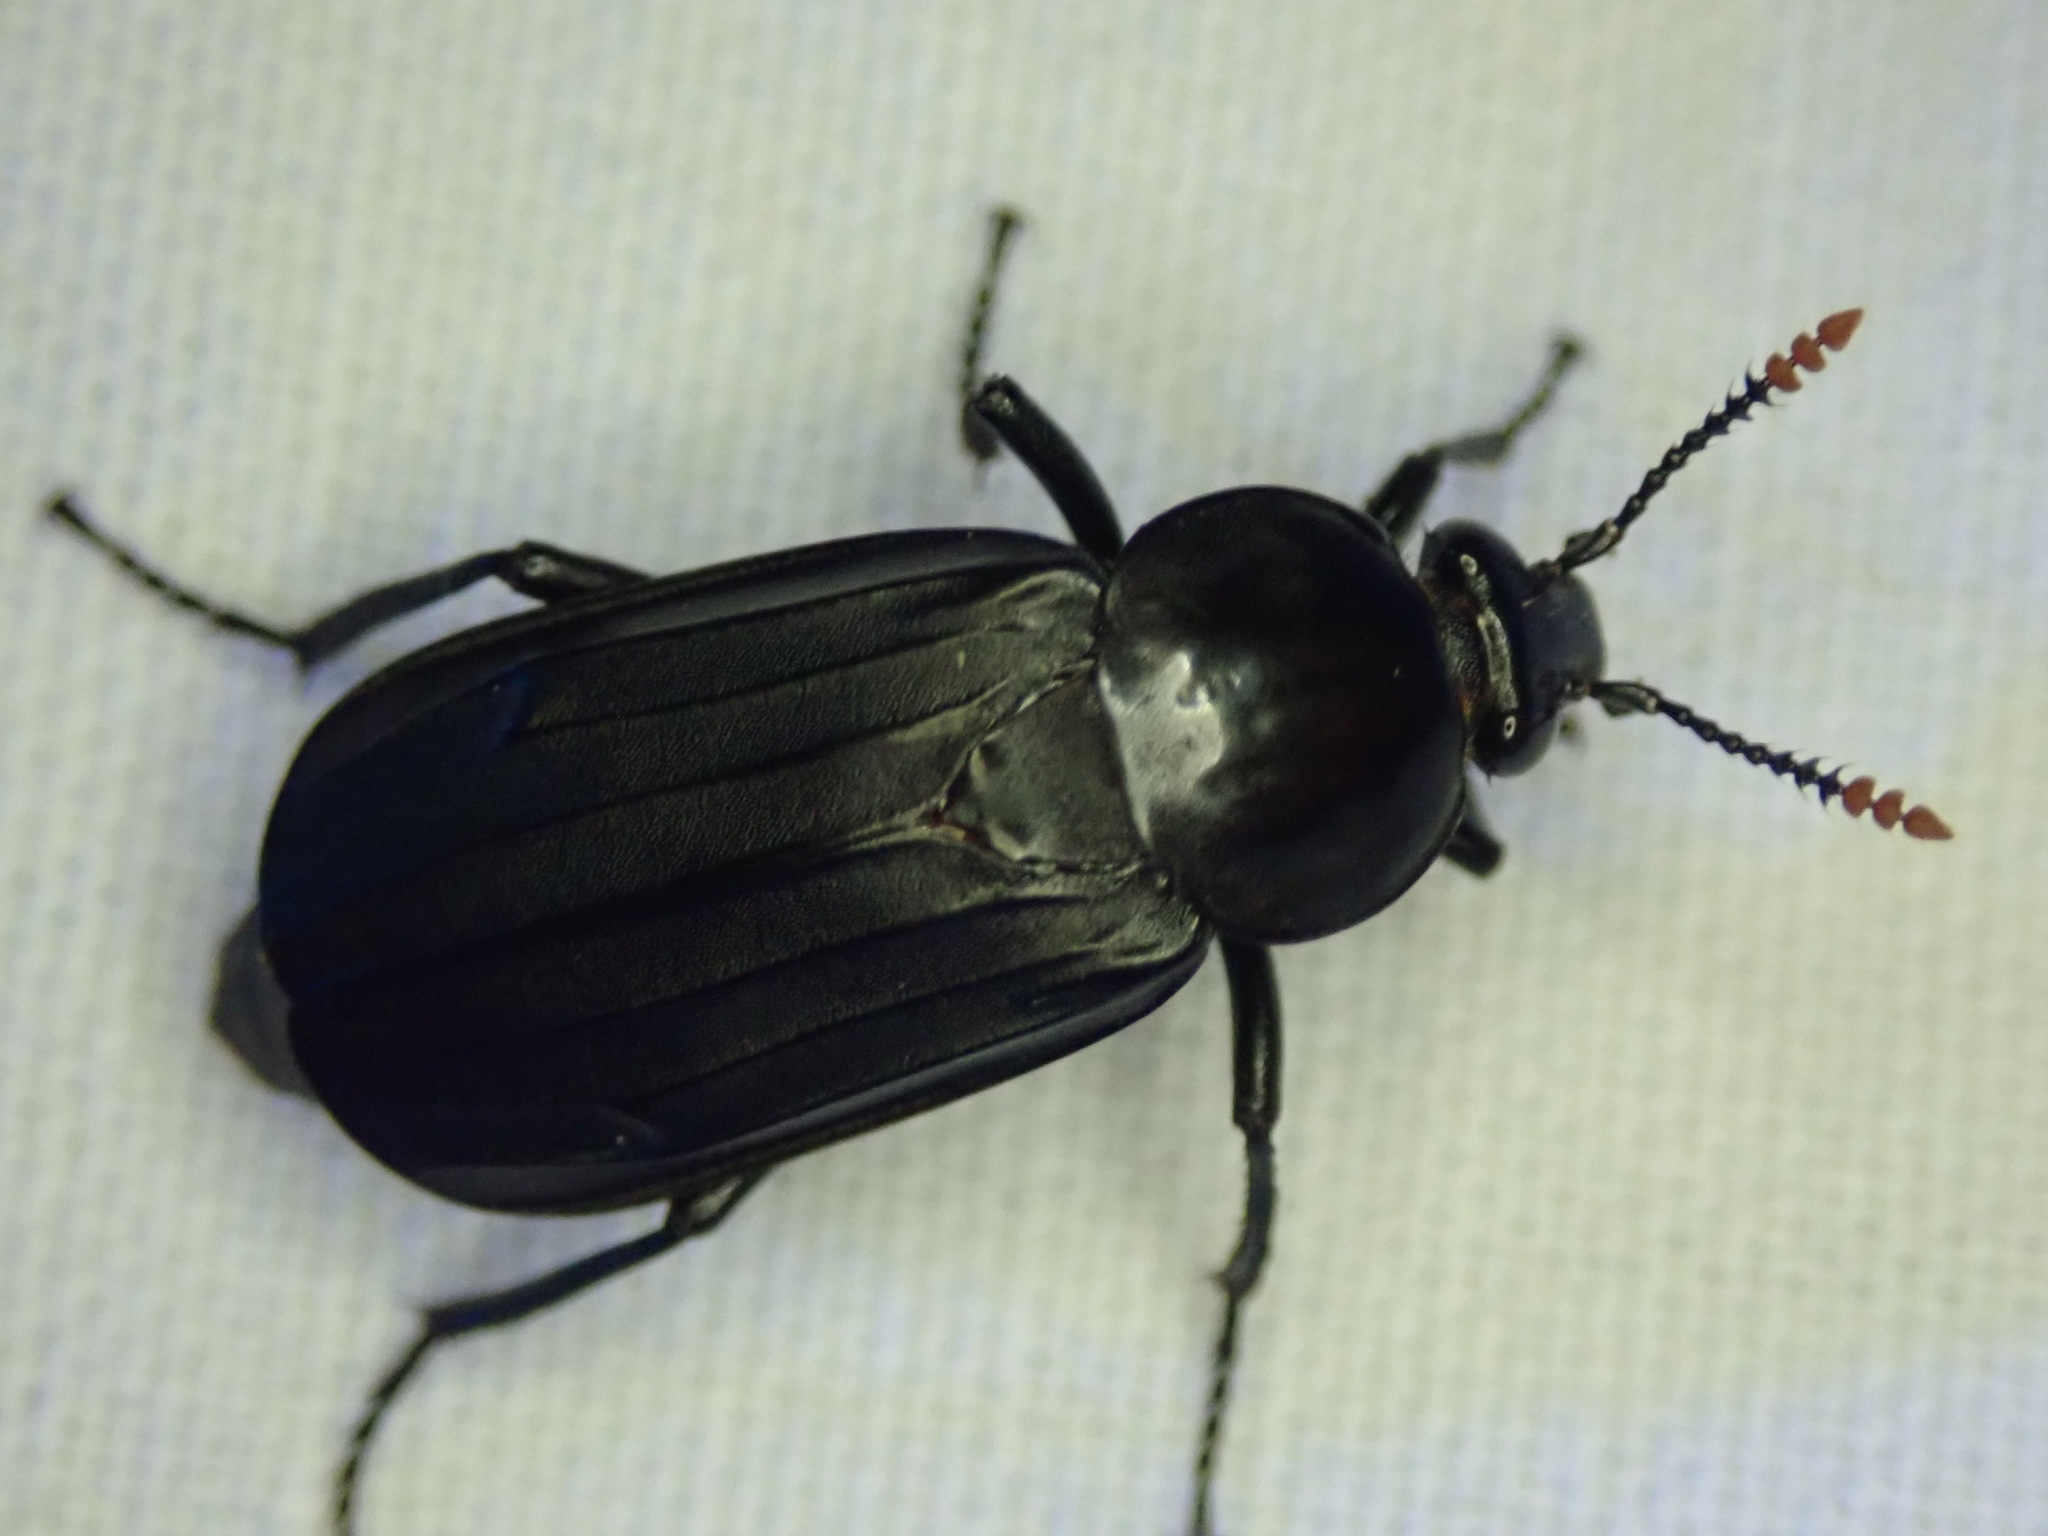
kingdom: Animalia
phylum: Arthropoda
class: Insecta
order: Coleoptera
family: Staphylinidae
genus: Necrodes
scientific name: Necrodes littoralis
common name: Shore sexton beetle
